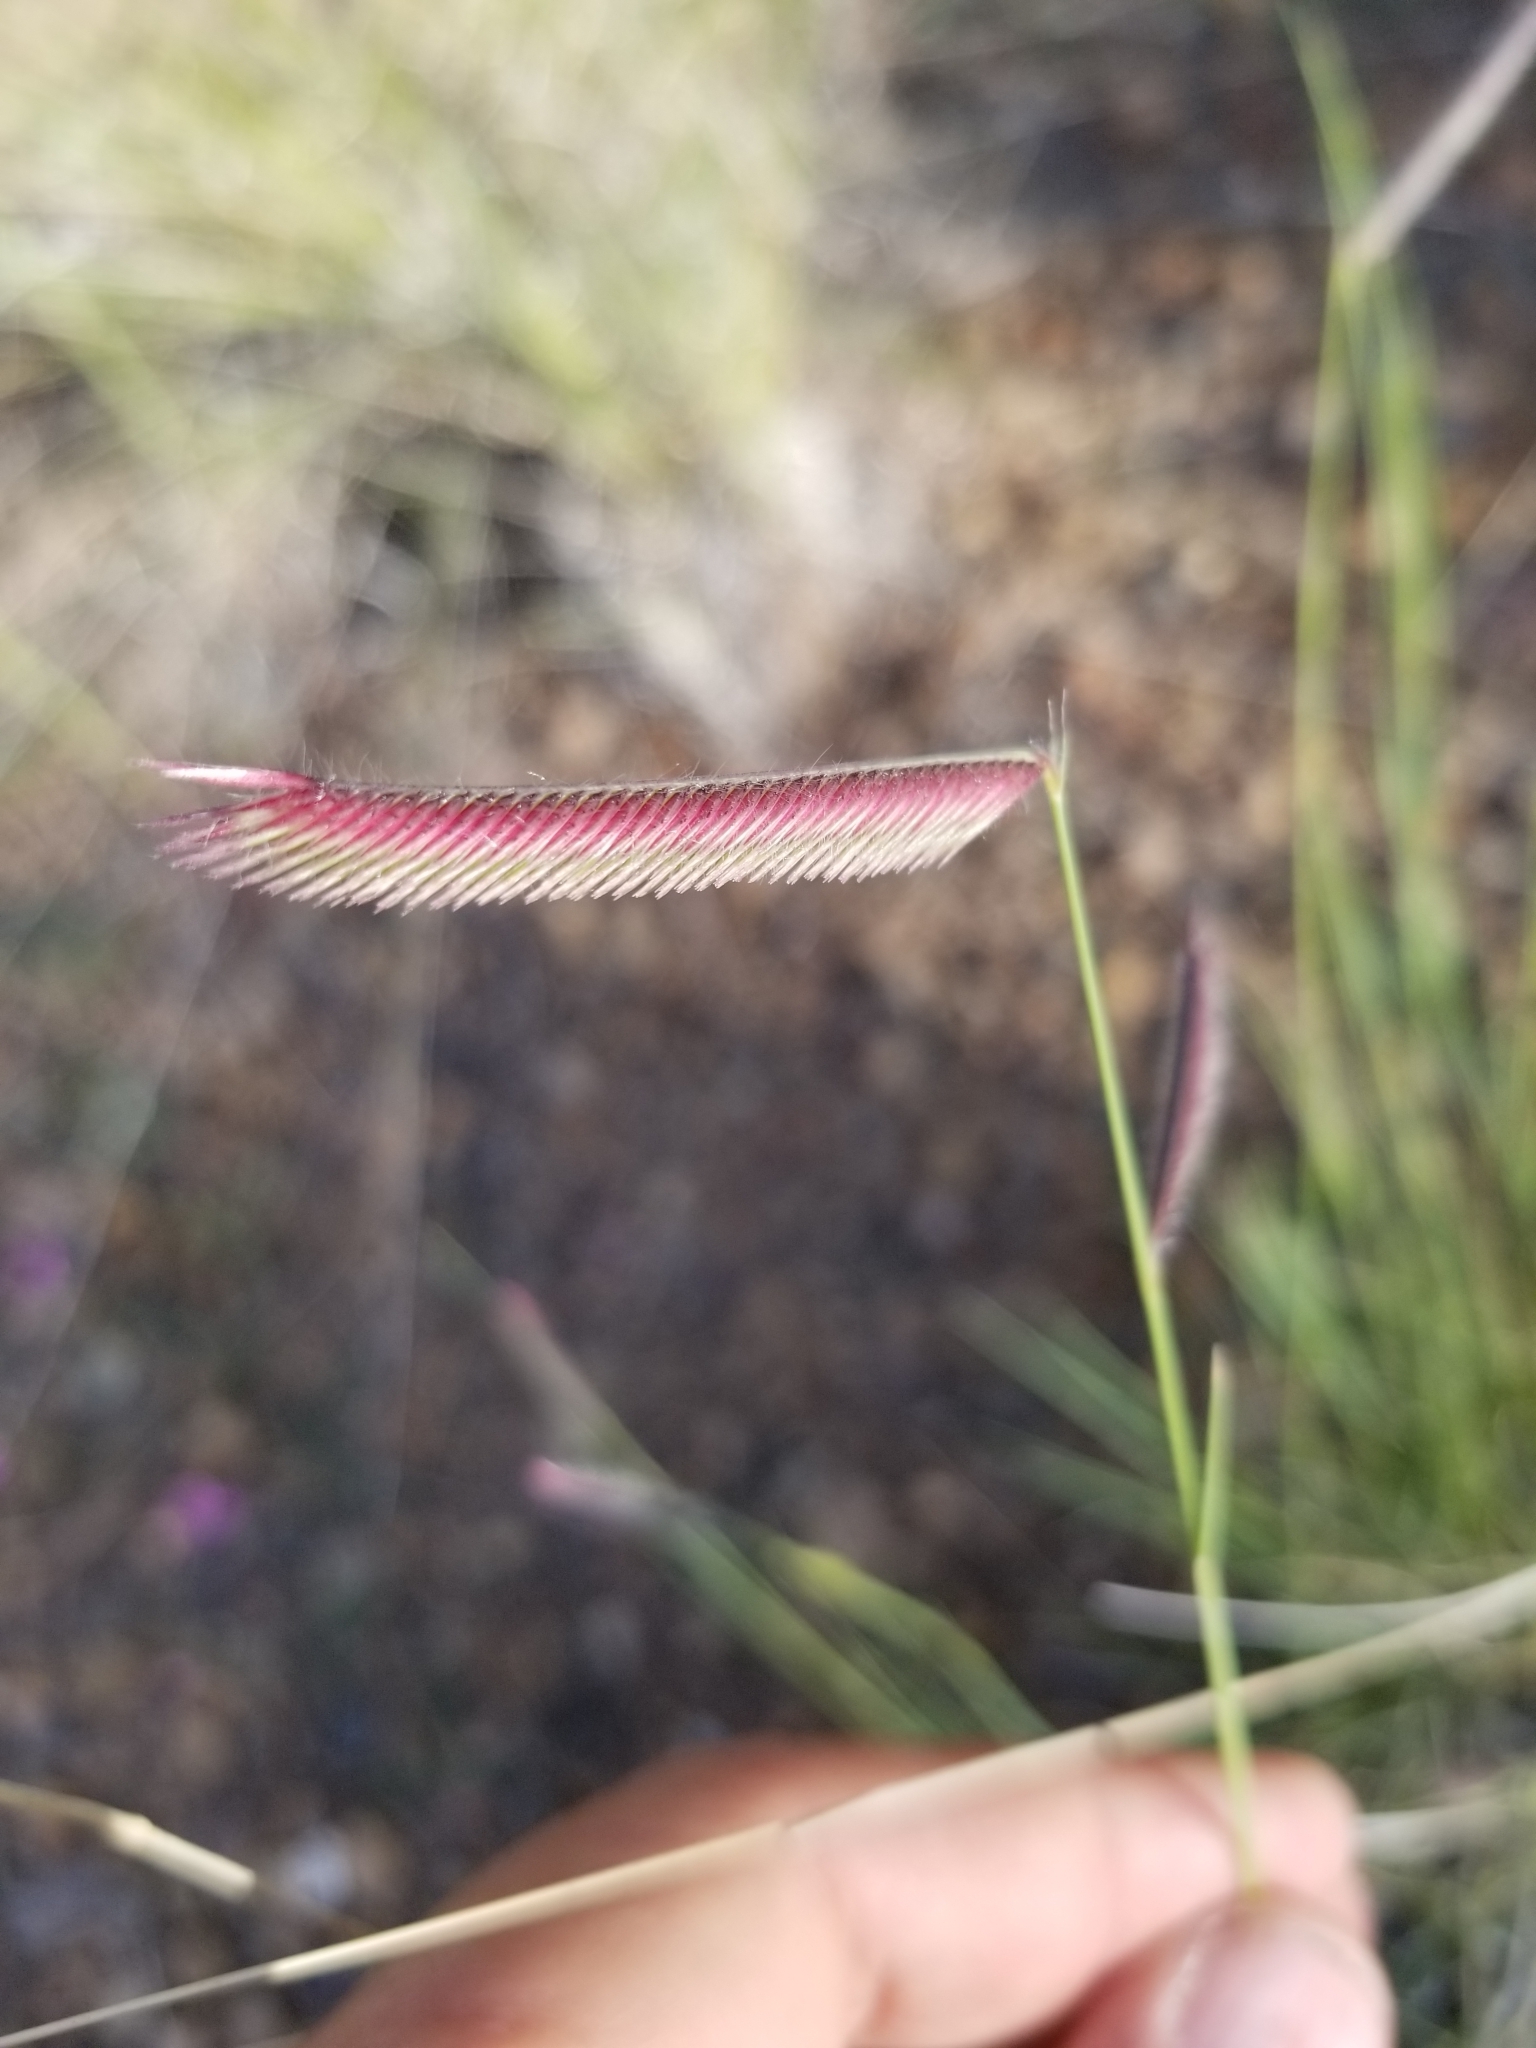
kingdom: Plantae
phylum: Tracheophyta
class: Liliopsida
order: Poales
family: Poaceae
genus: Bouteloua
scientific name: Bouteloua gracilis
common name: Blue grama
